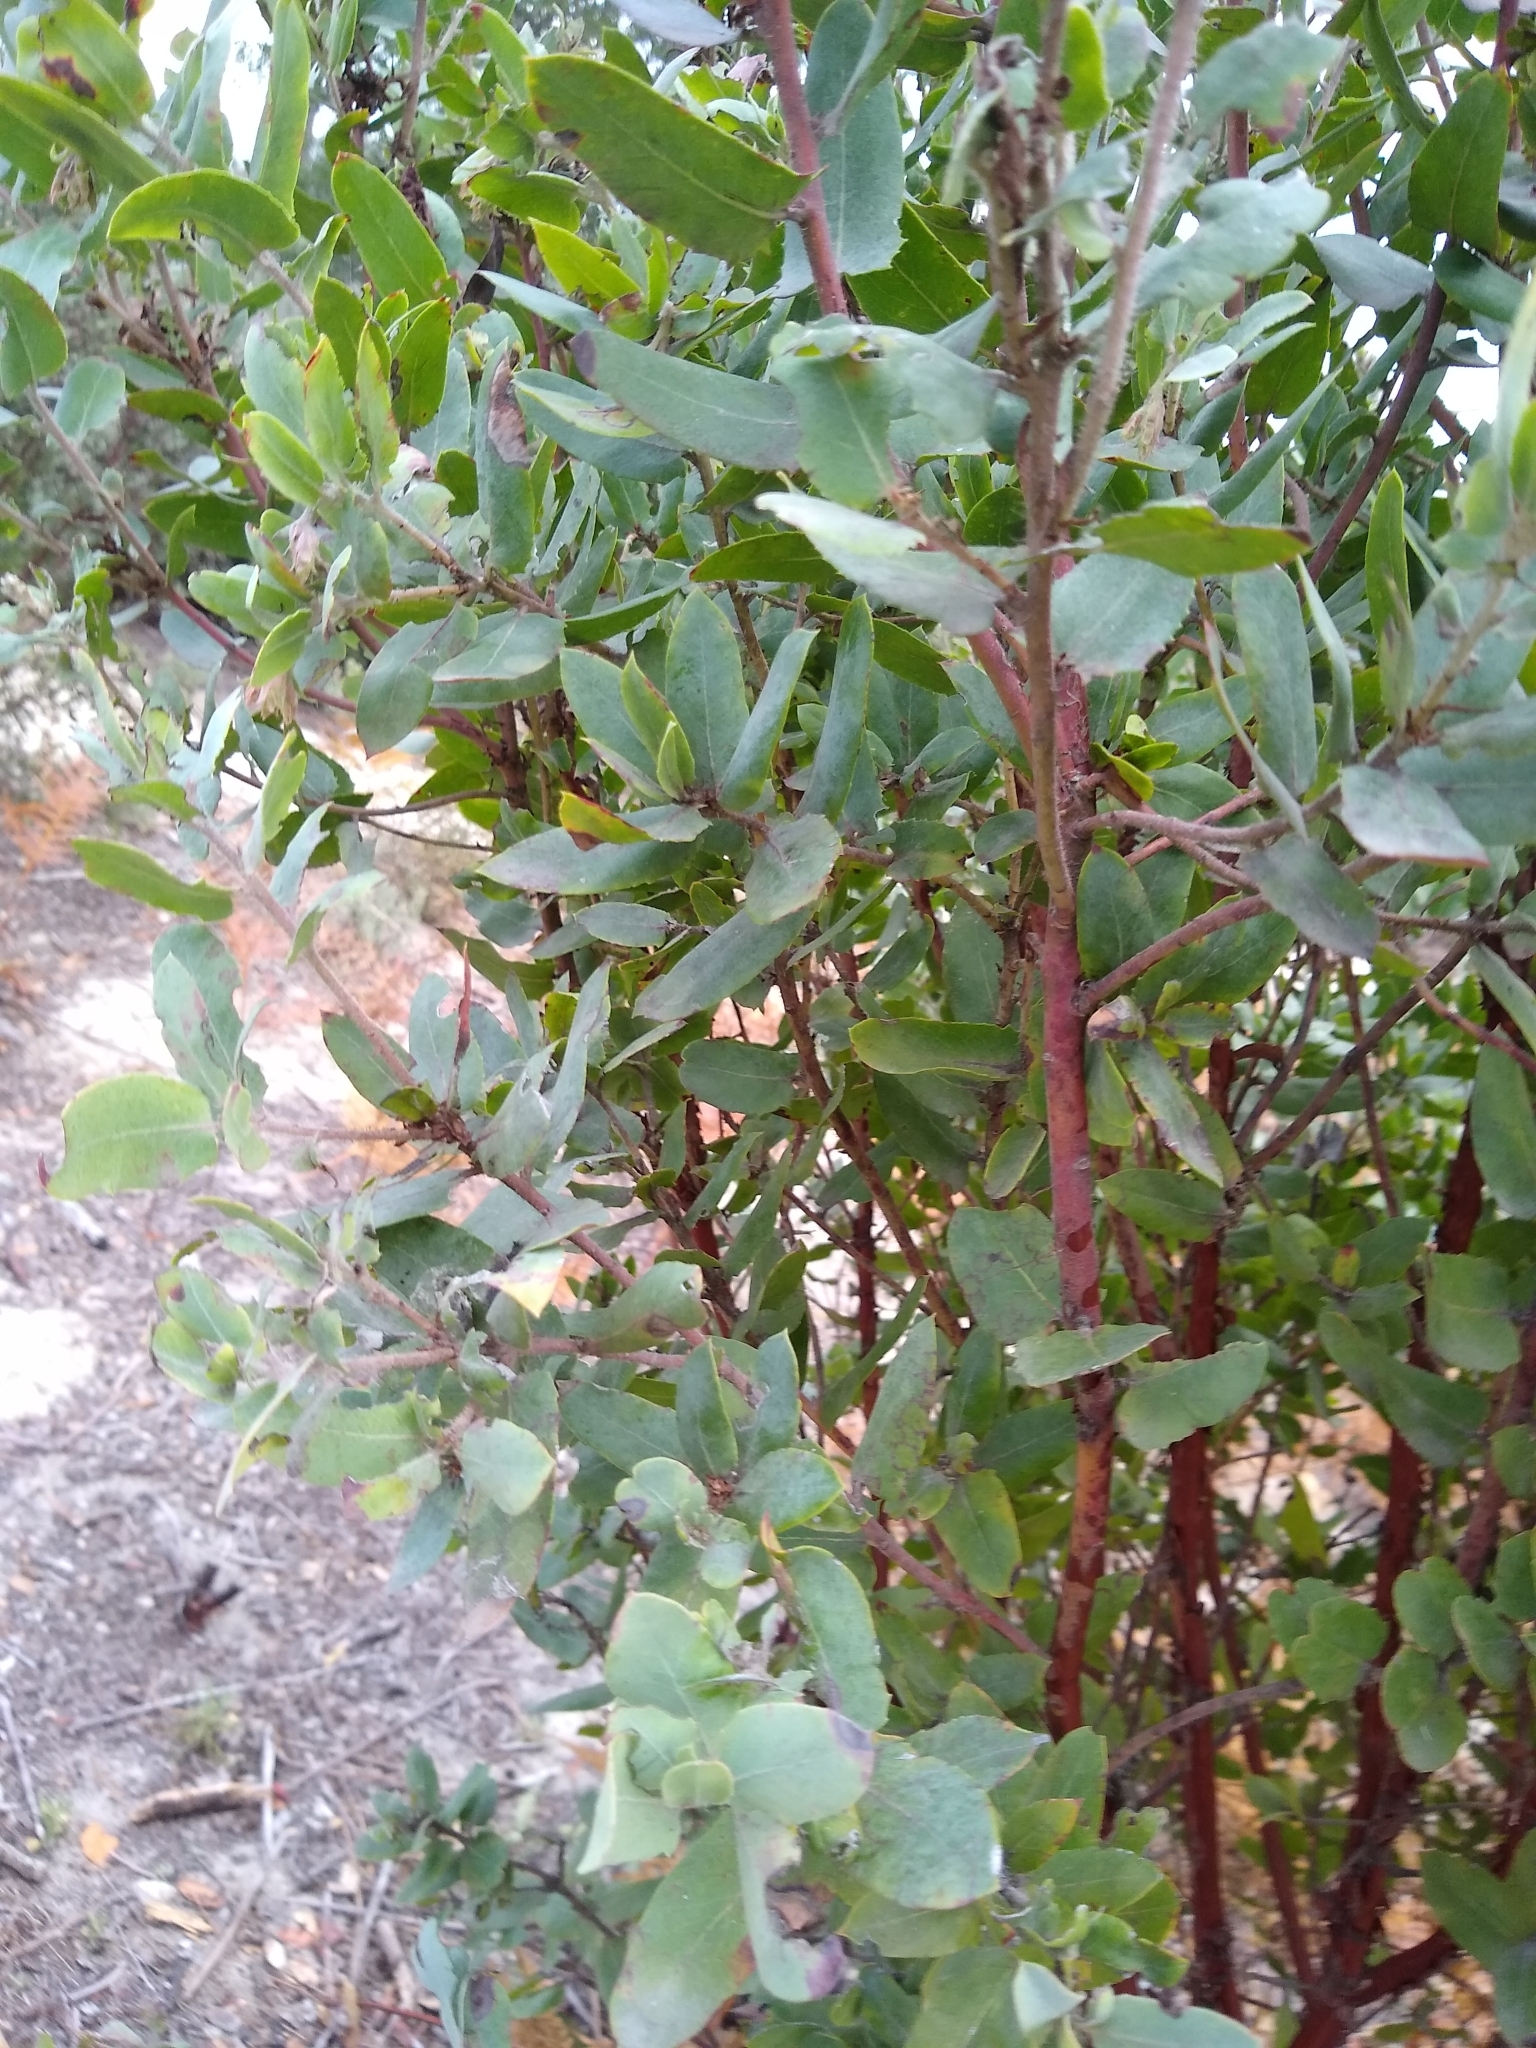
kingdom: Plantae
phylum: Tracheophyta
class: Magnoliopsida
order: Ericales
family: Ericaceae
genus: Arctostaphylos
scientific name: Arctostaphylos andersonii
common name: Santa cruz manzanita
